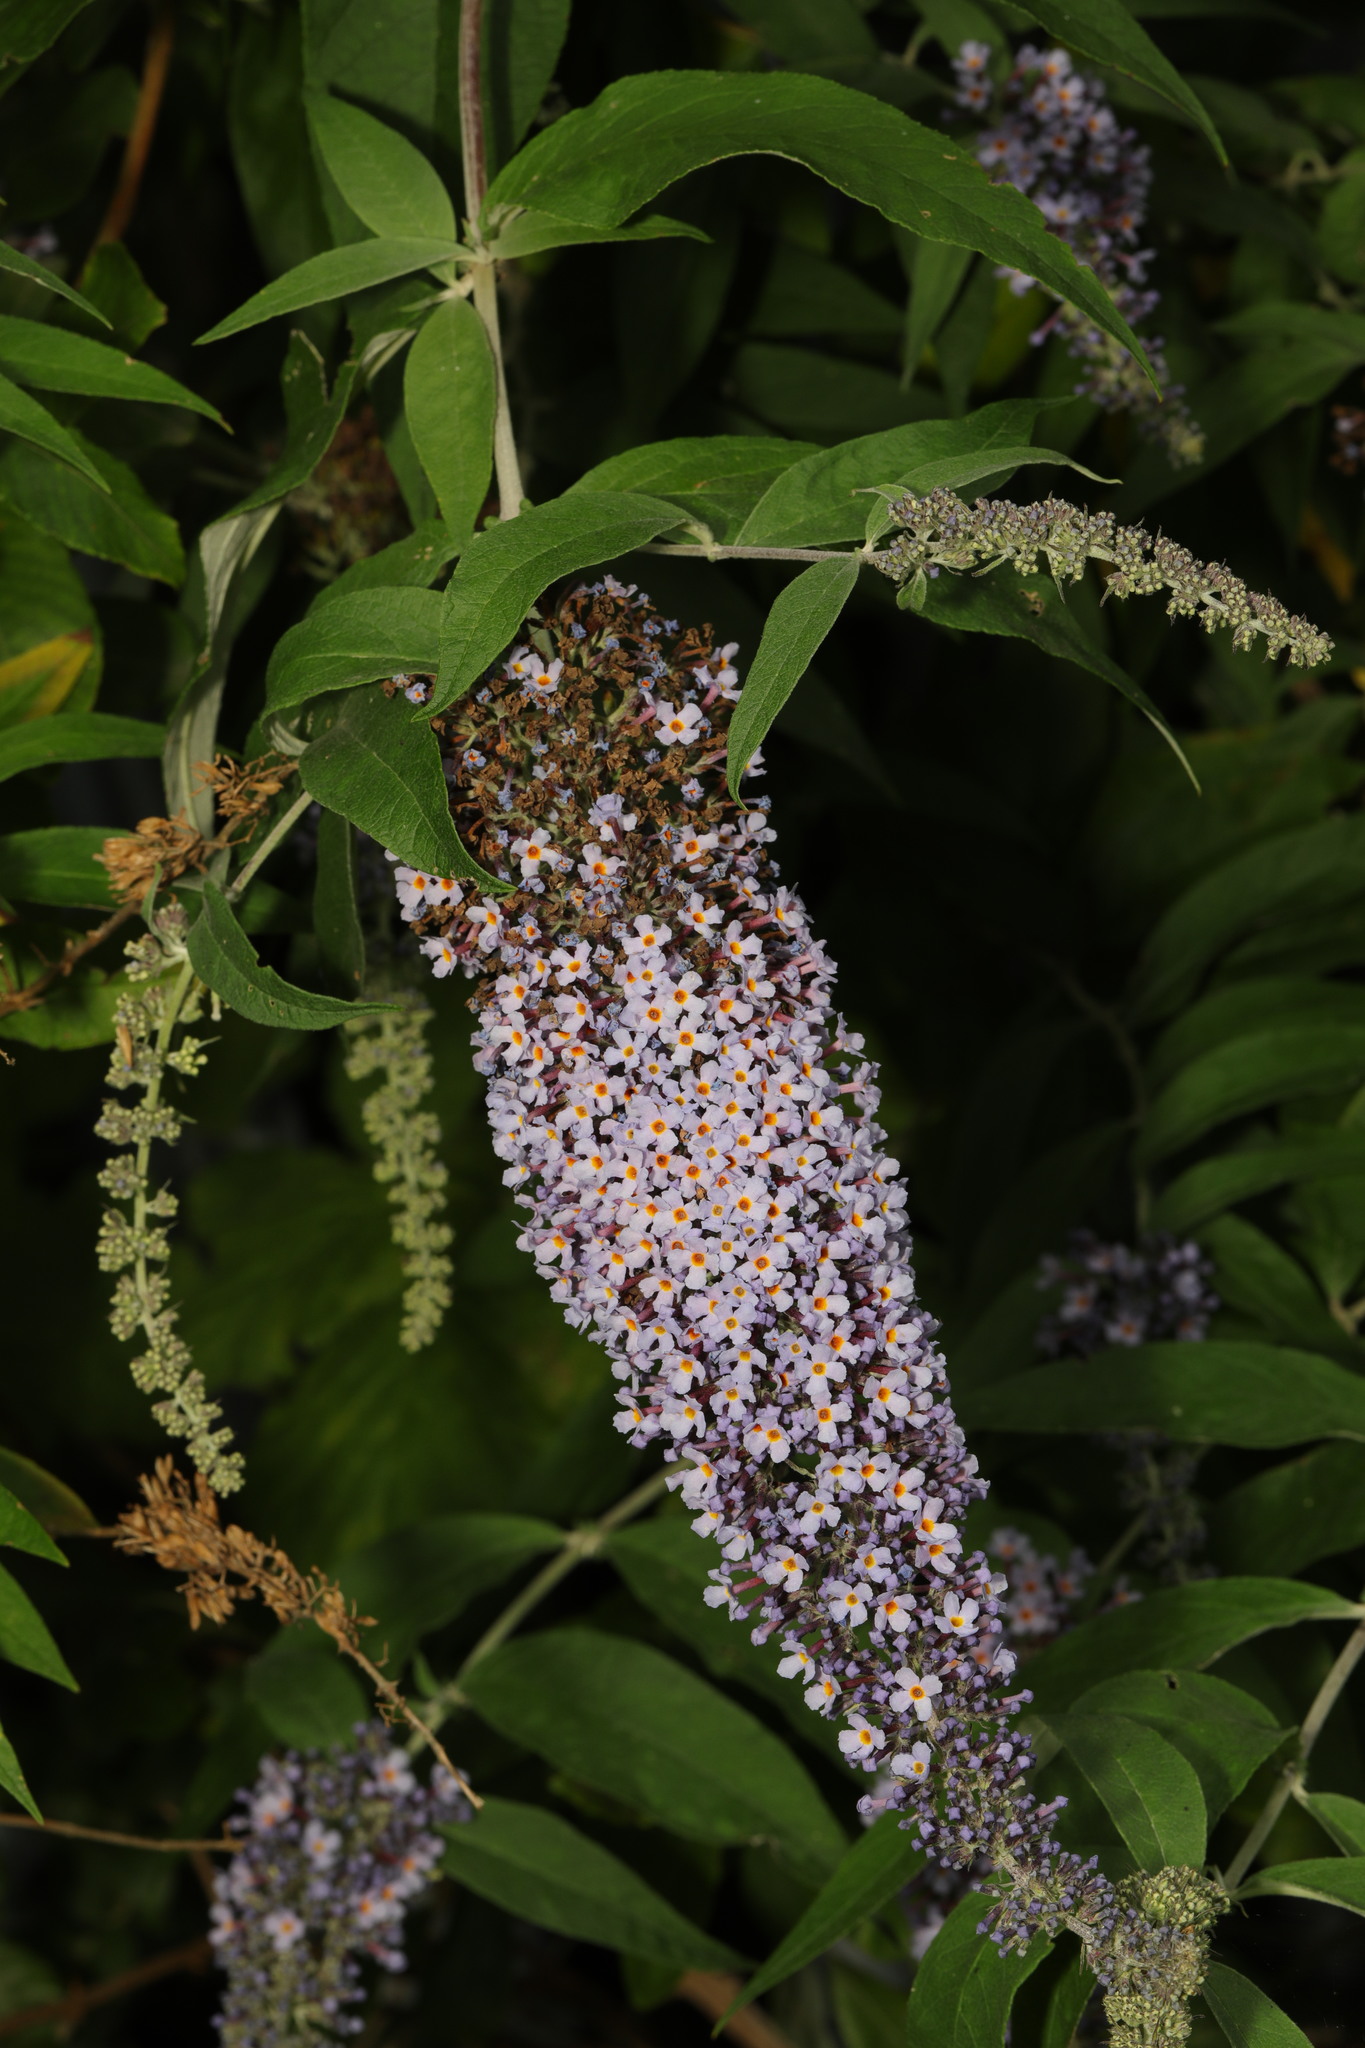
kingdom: Plantae
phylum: Tracheophyta
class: Magnoliopsida
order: Lamiales
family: Scrophulariaceae
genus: Buddleja
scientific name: Buddleja davidii
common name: Butterfly-bush
